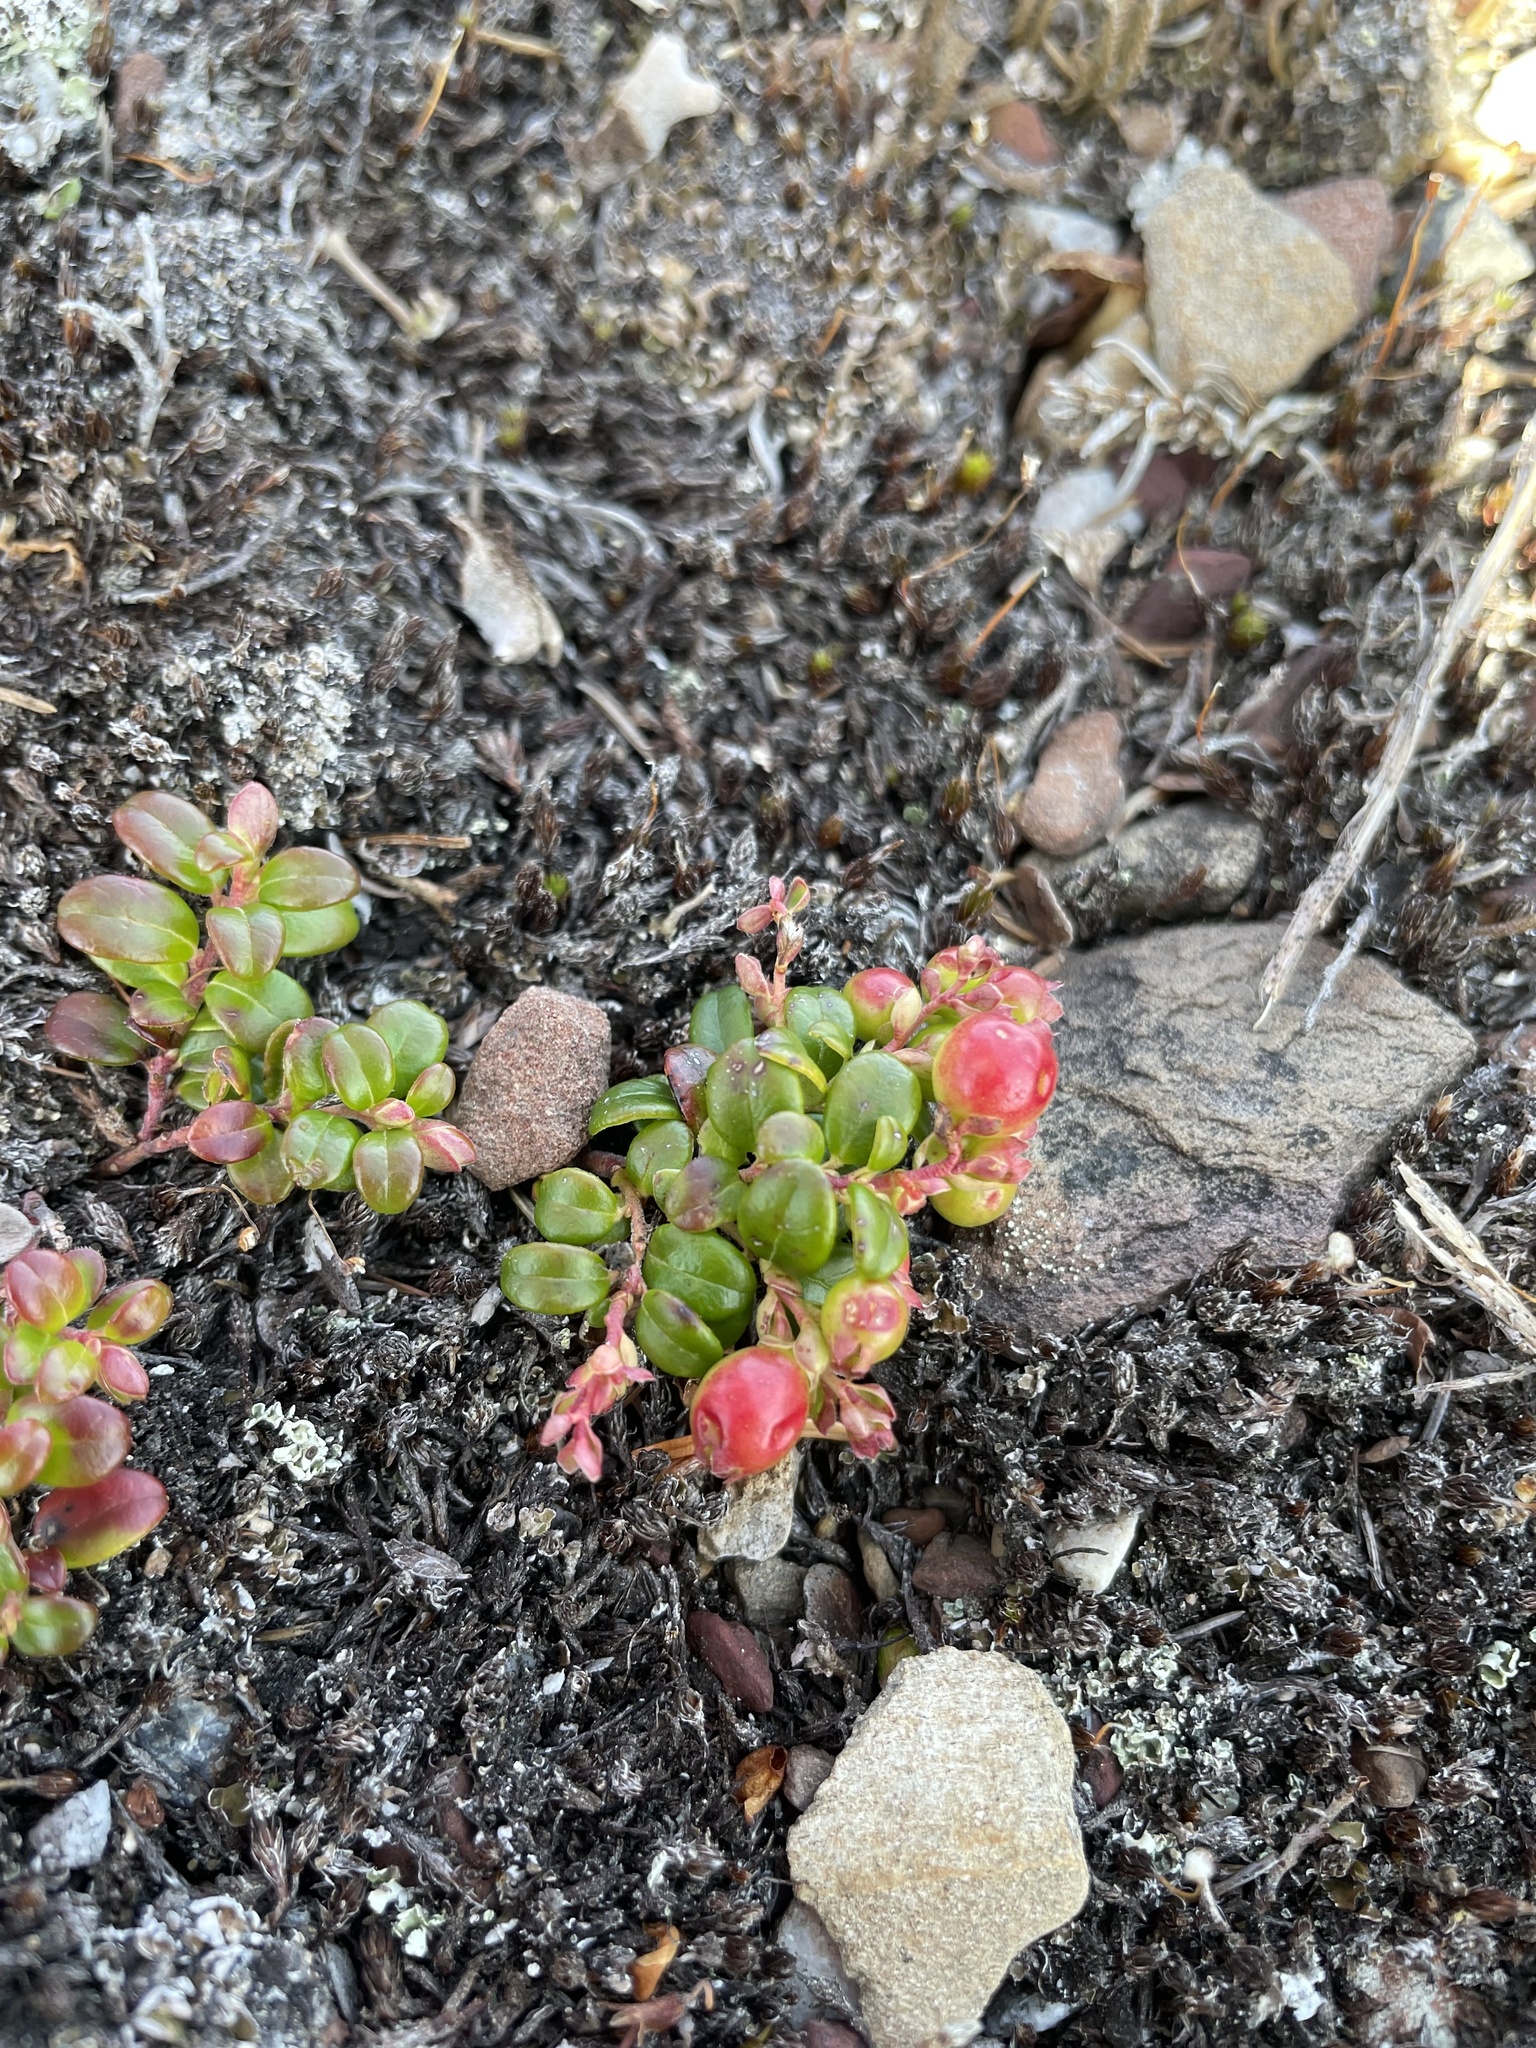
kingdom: Plantae
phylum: Tracheophyta
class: Magnoliopsida
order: Saxifragales
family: Saxifragaceae
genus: Saxifraga
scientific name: Saxifraga tricuspidata
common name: Prickly saxifrage
